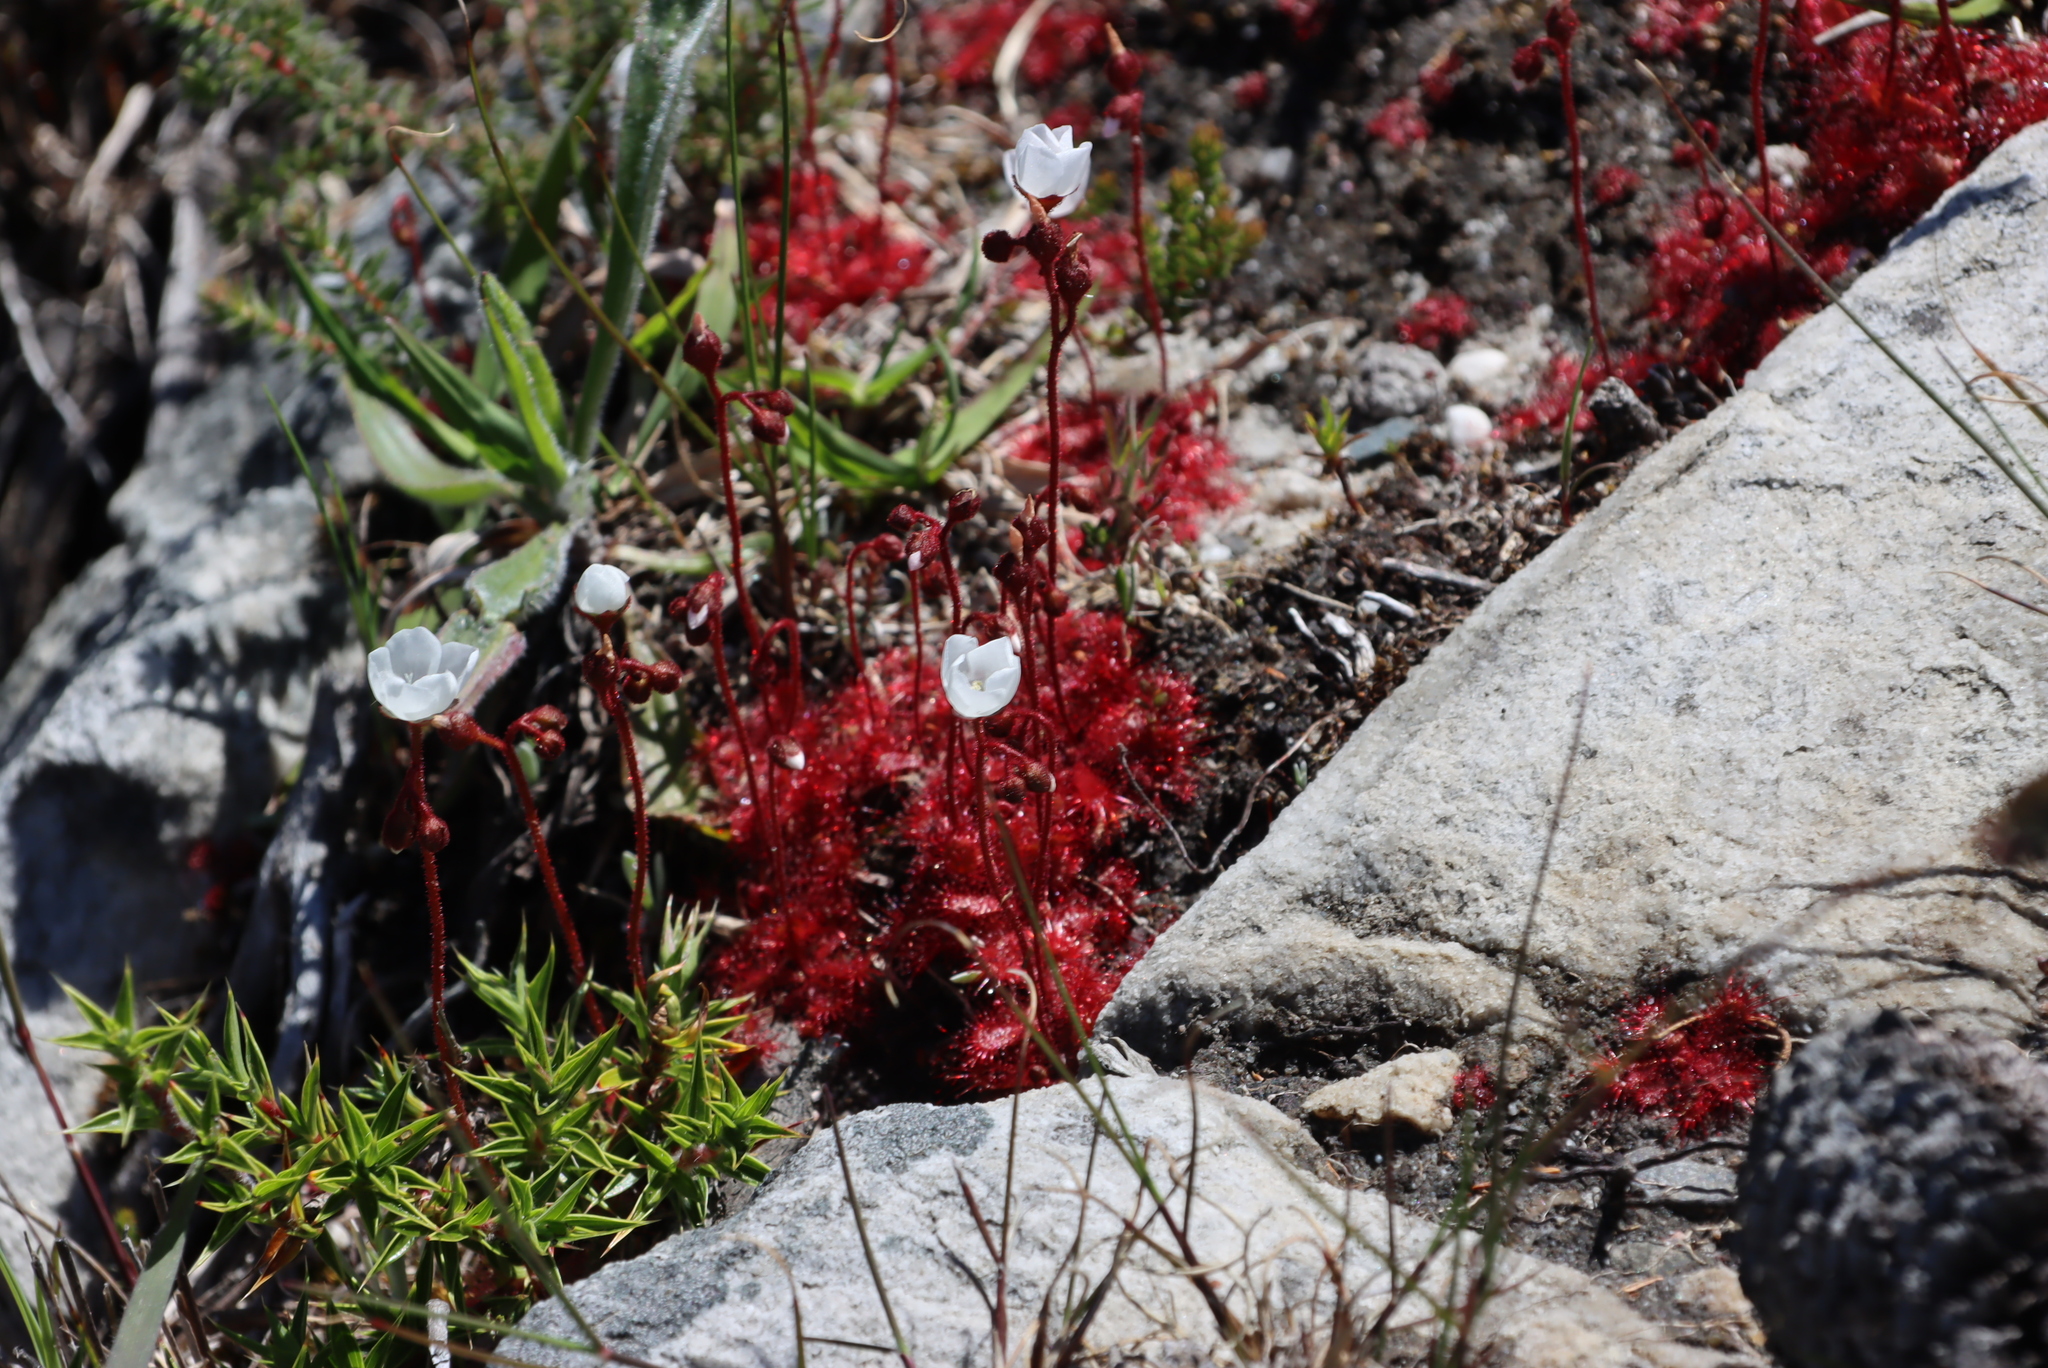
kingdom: Plantae
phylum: Tracheophyta
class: Magnoliopsida
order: Caryophyllales
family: Droseraceae
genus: Drosera
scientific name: Drosera trinervia
